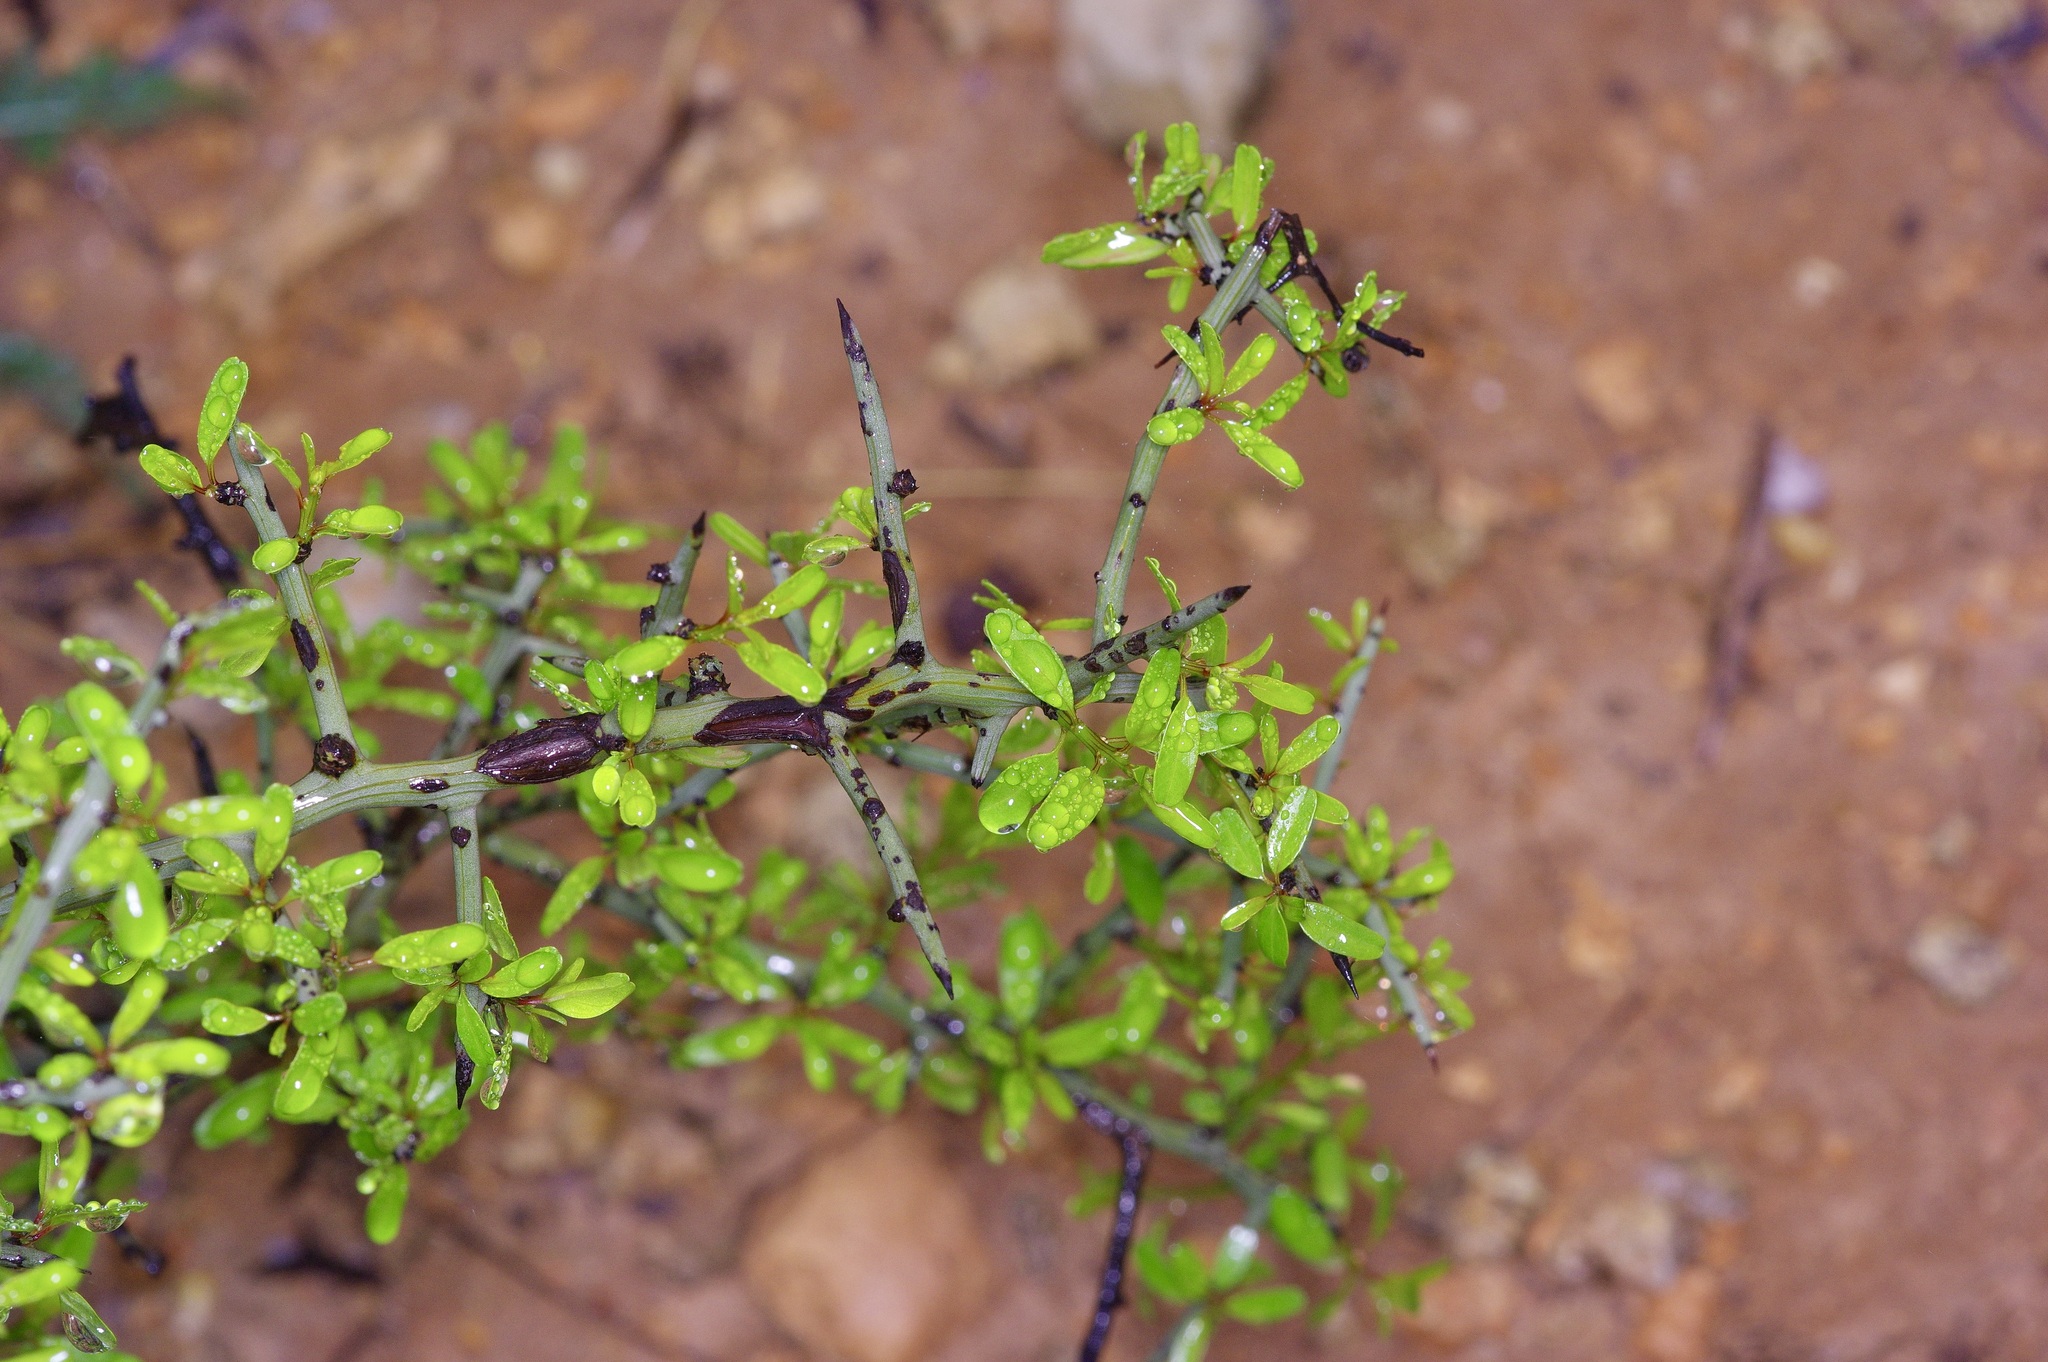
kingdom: Plantae
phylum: Tracheophyta
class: Magnoliopsida
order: Rosales
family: Rhamnaceae
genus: Sarcomphalus
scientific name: Sarcomphalus obtusifolius
